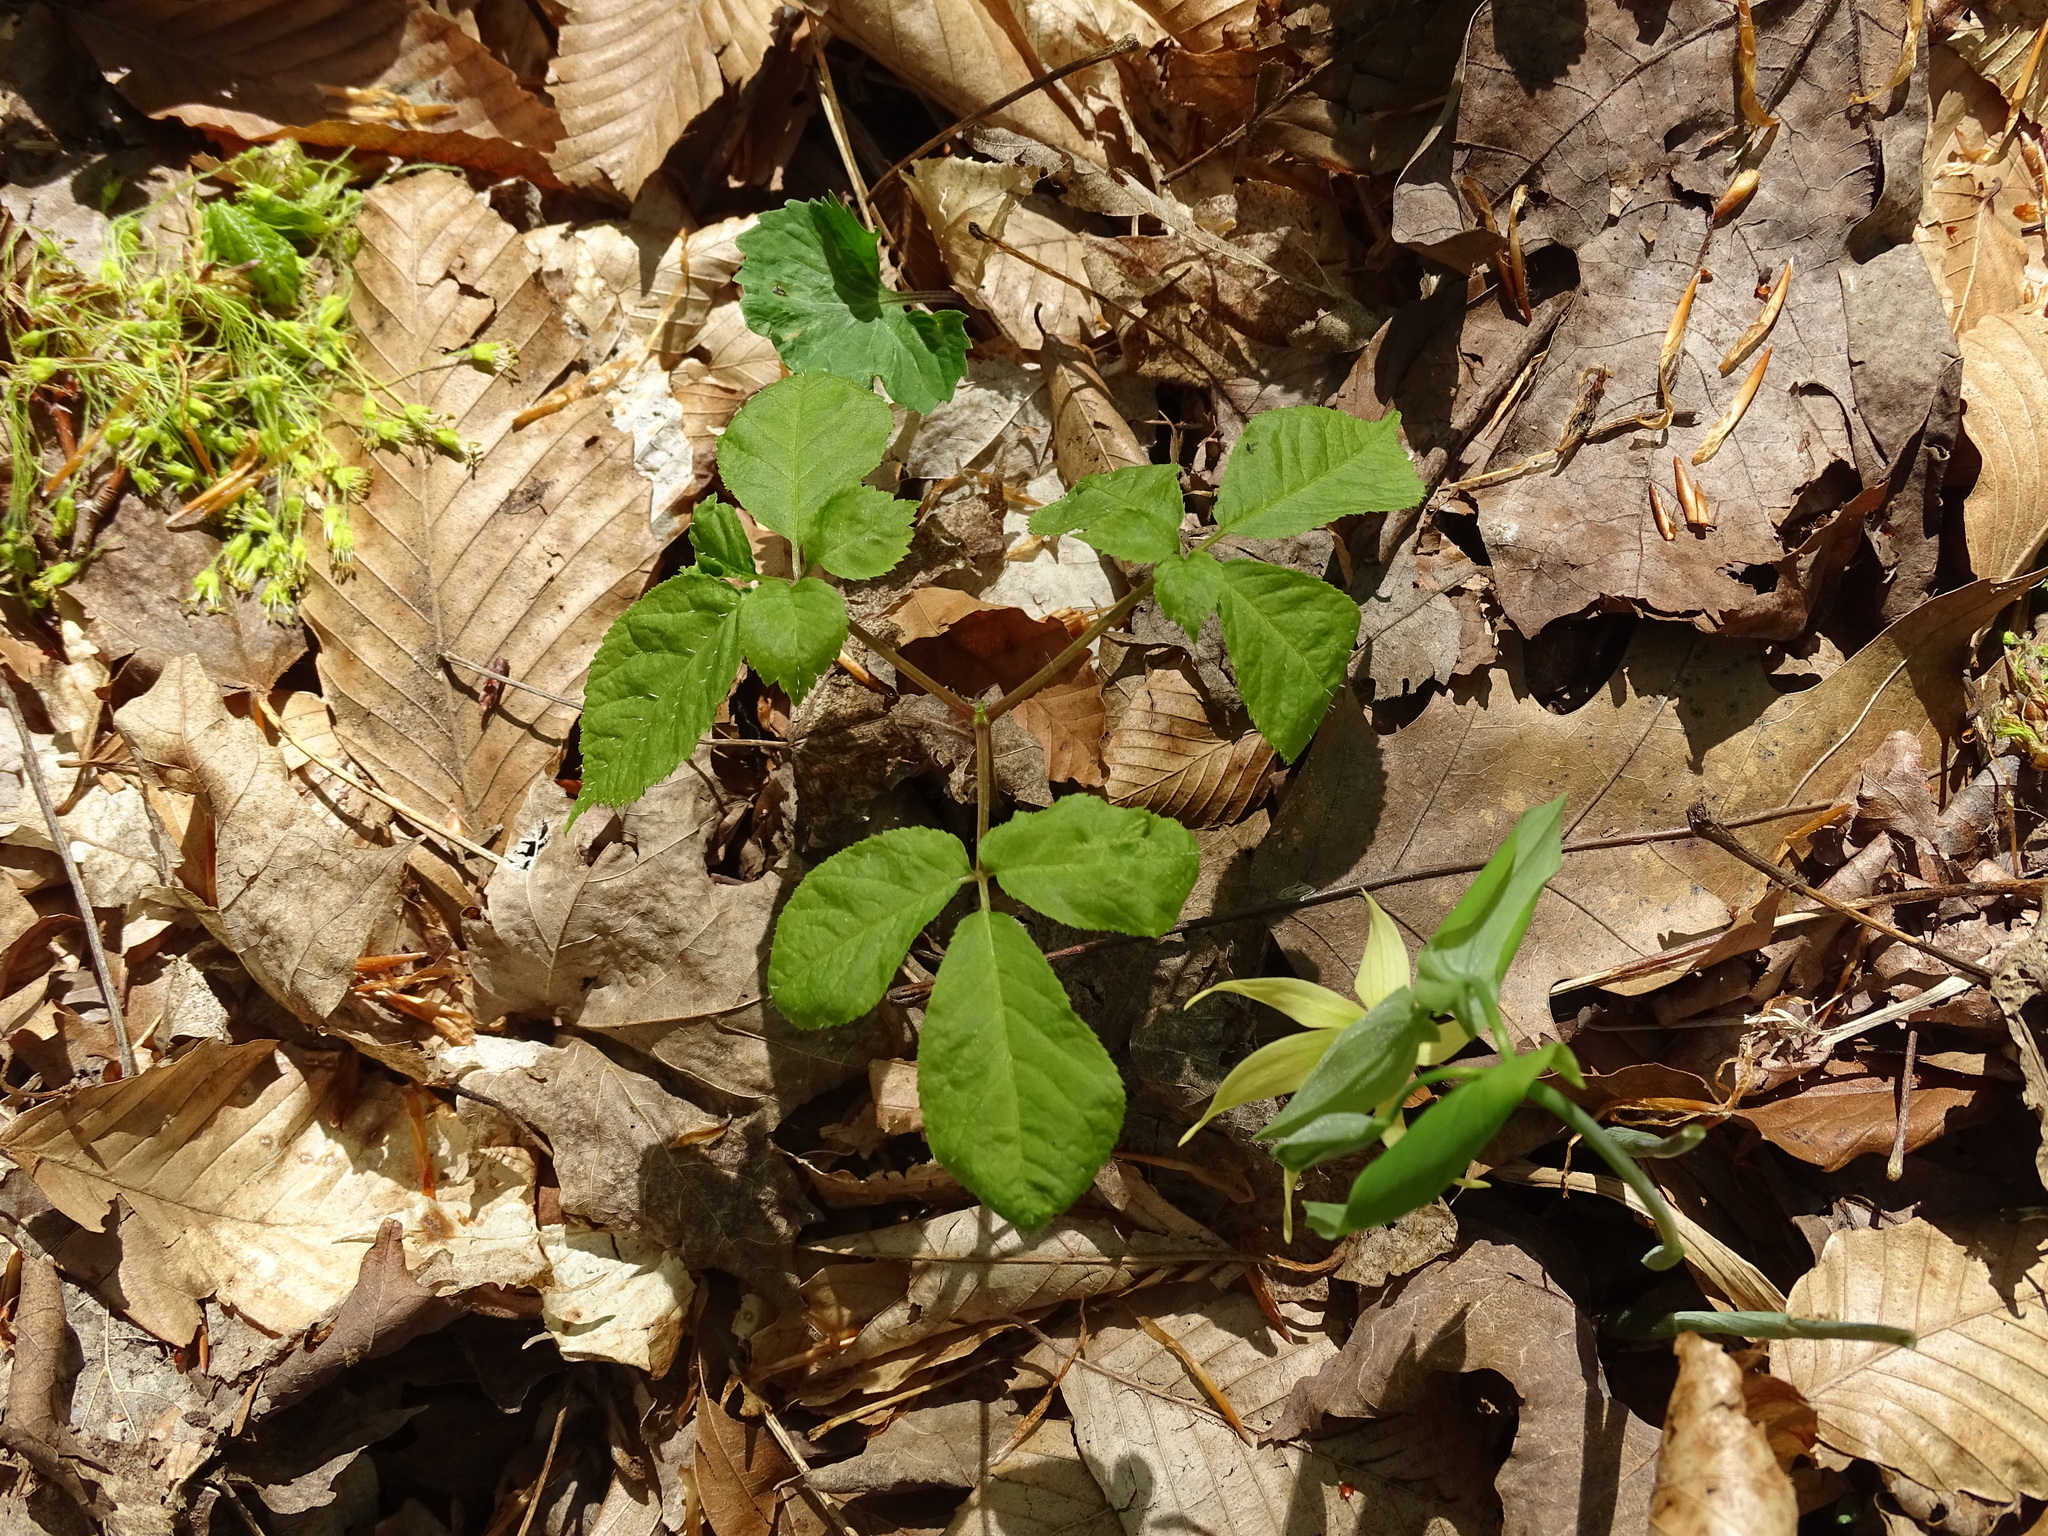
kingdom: Plantae
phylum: Tracheophyta
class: Magnoliopsida
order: Apiales
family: Araliaceae
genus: Panax
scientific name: Panax quinquefolius
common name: American ginseng
